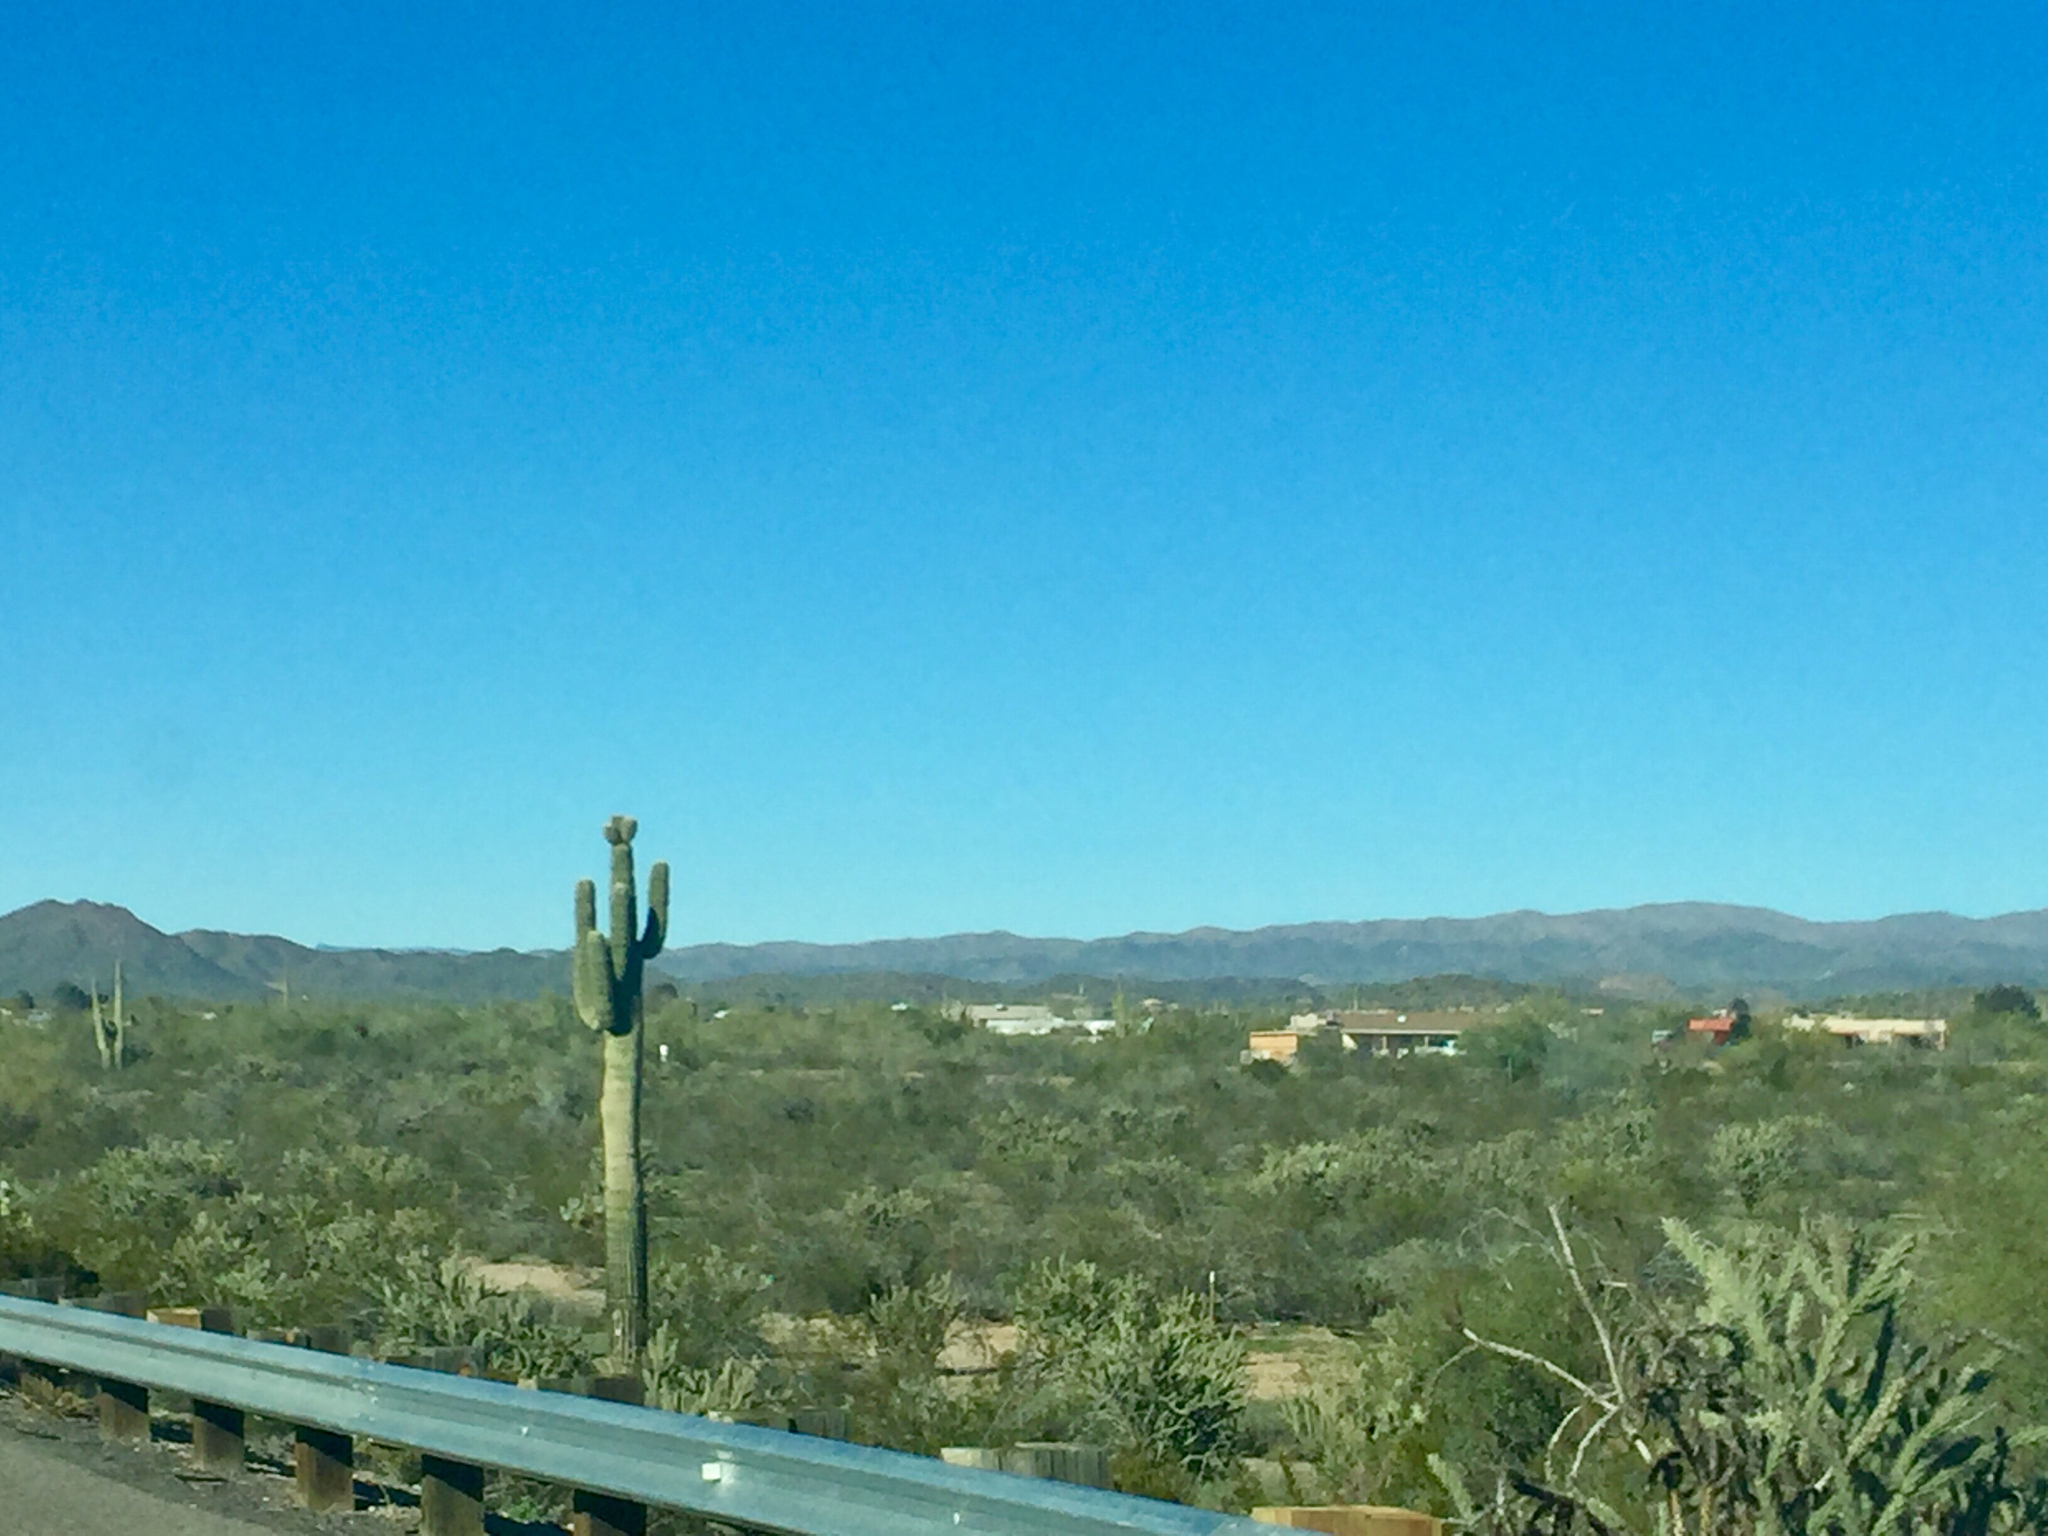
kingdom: Plantae
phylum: Tracheophyta
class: Magnoliopsida
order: Caryophyllales
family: Cactaceae
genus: Carnegiea
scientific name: Carnegiea gigantea
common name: Saguaro
